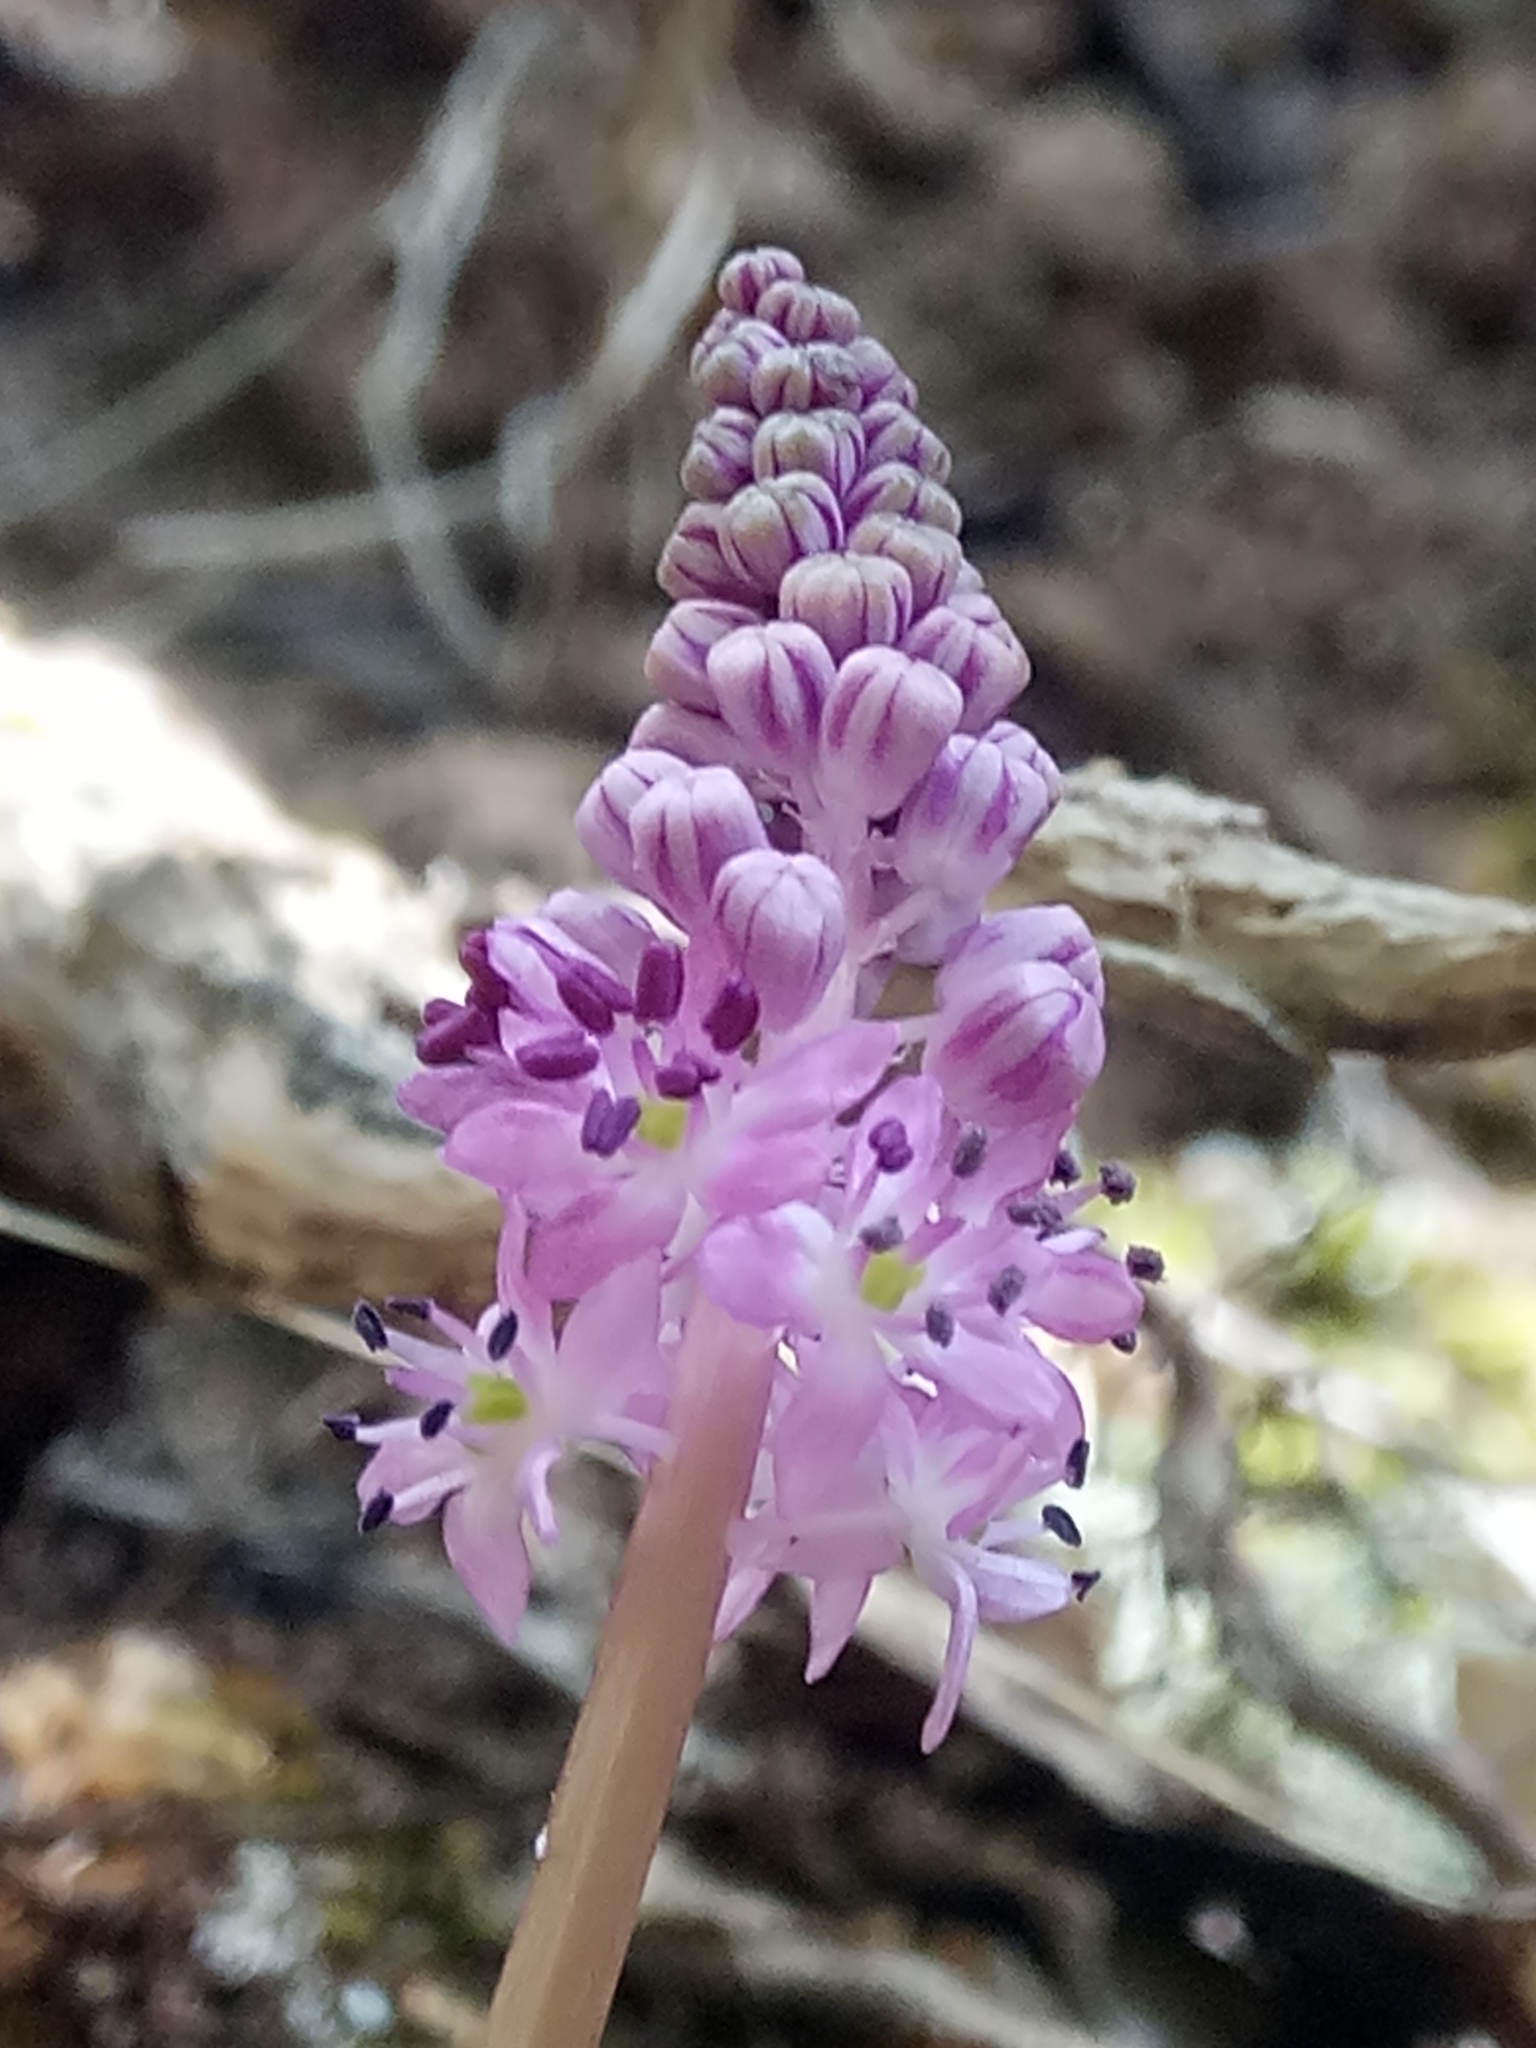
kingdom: Plantae
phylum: Tracheophyta
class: Liliopsida
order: Asparagales
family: Asparagaceae
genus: Barnardia
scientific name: Barnardia numidica
